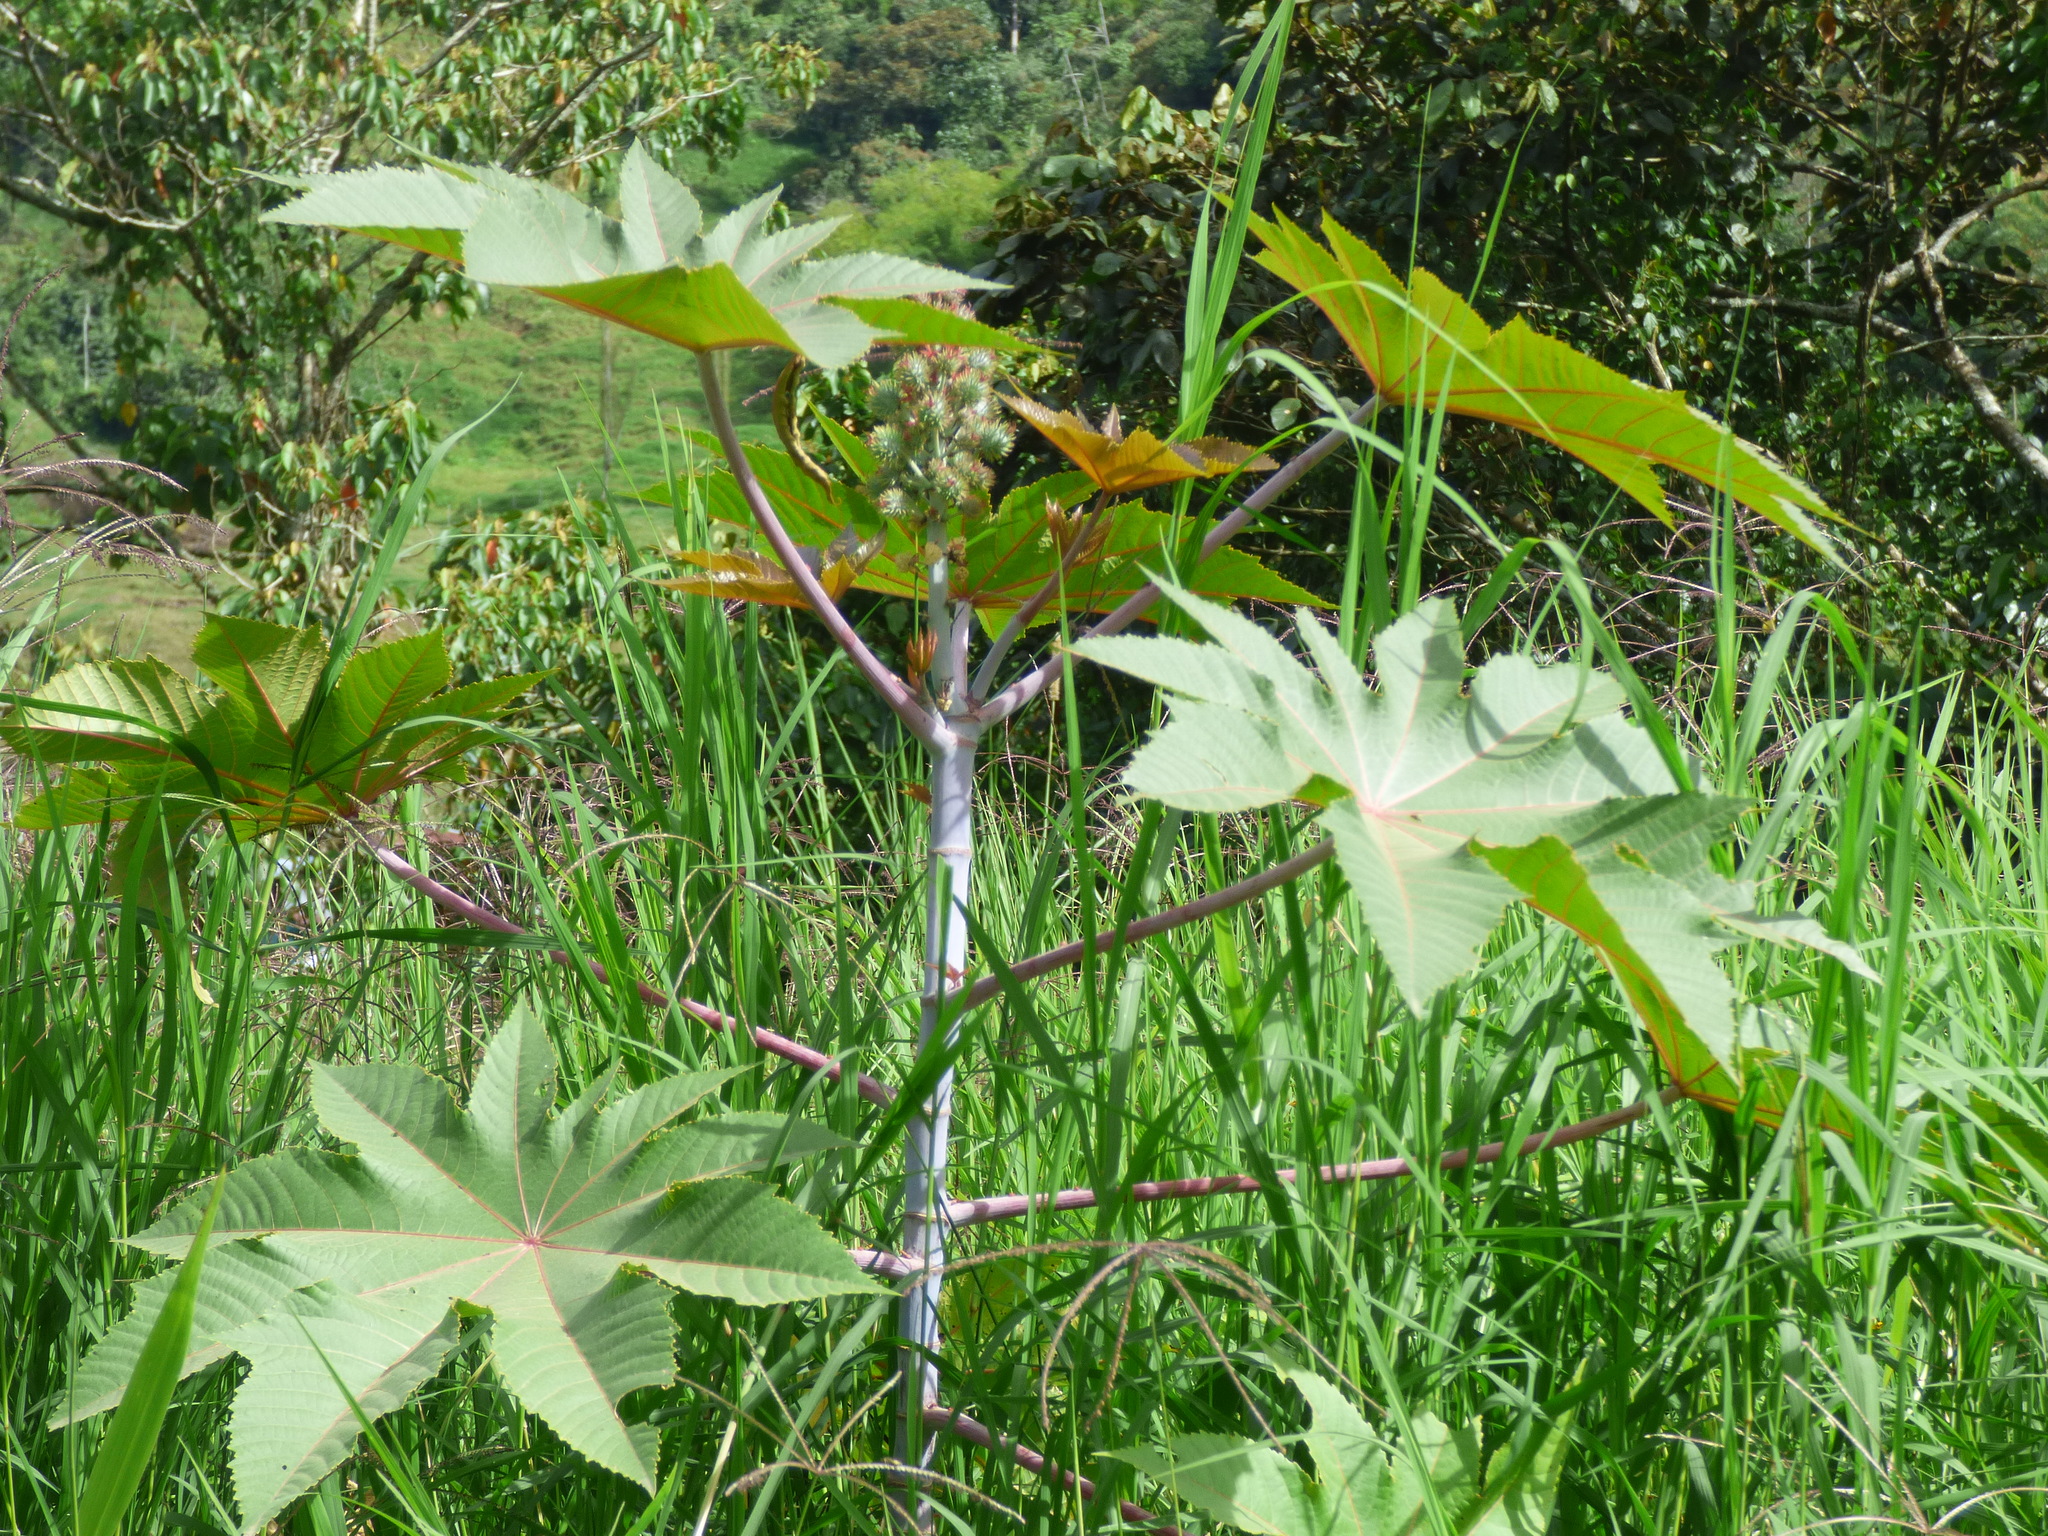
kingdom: Plantae
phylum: Tracheophyta
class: Magnoliopsida
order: Malpighiales
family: Euphorbiaceae
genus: Ricinus
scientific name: Ricinus communis
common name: Castor-oil-plant
